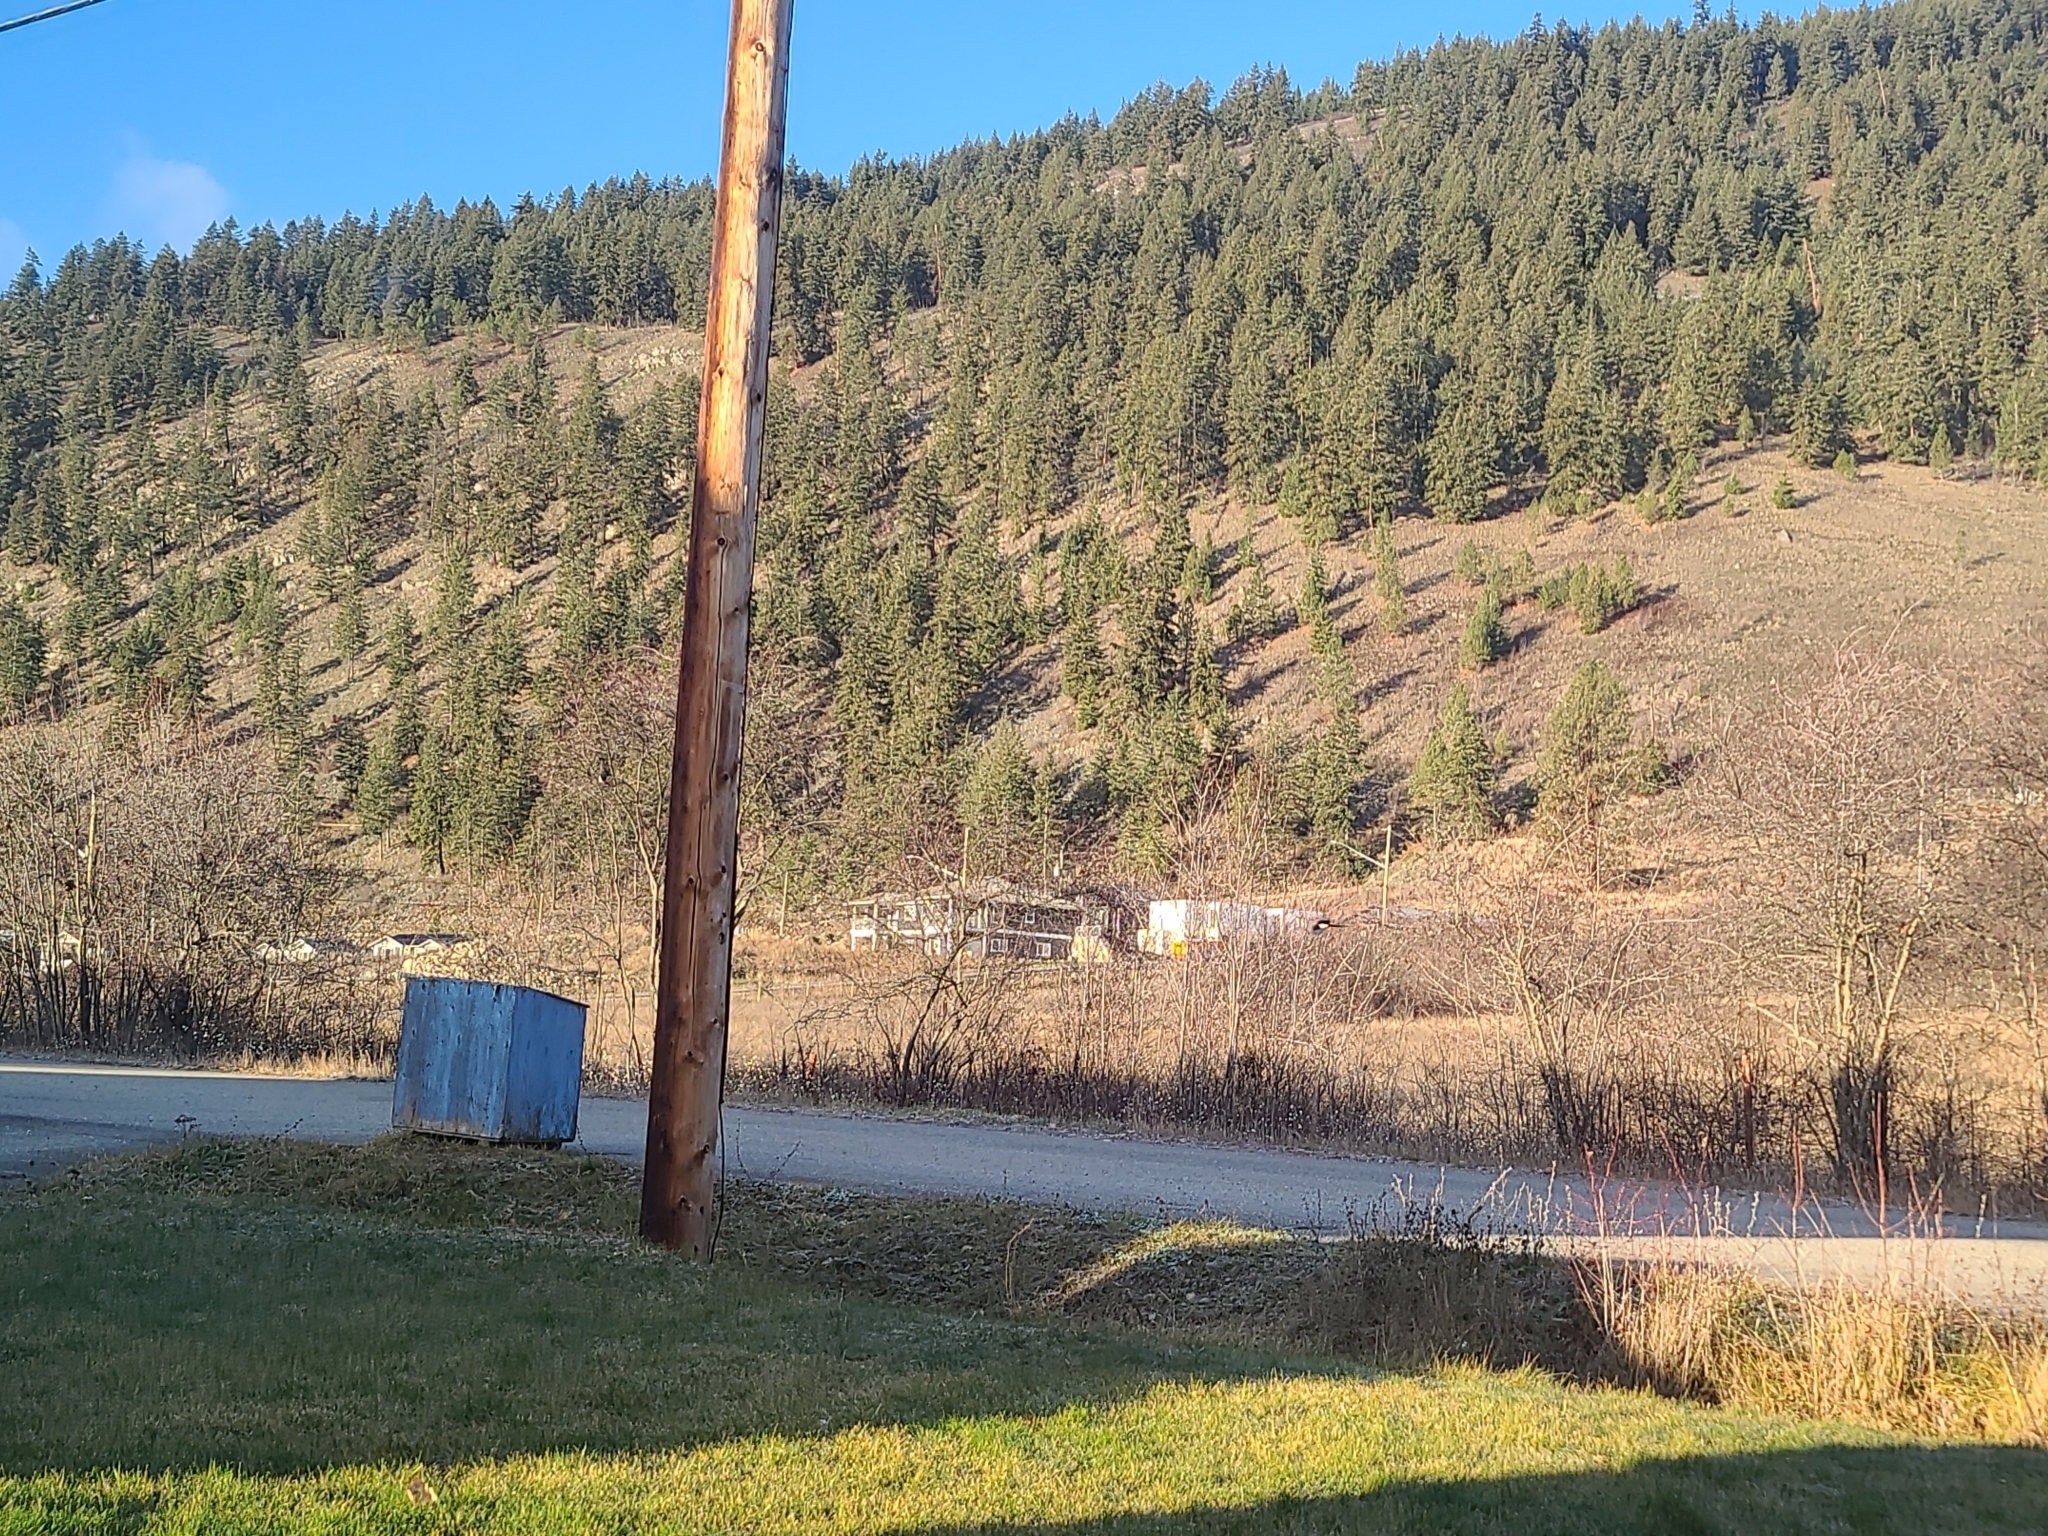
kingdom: Animalia
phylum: Chordata
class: Aves
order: Passeriformes
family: Corvidae
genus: Pica
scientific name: Pica hudsonia
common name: Black-billed magpie
